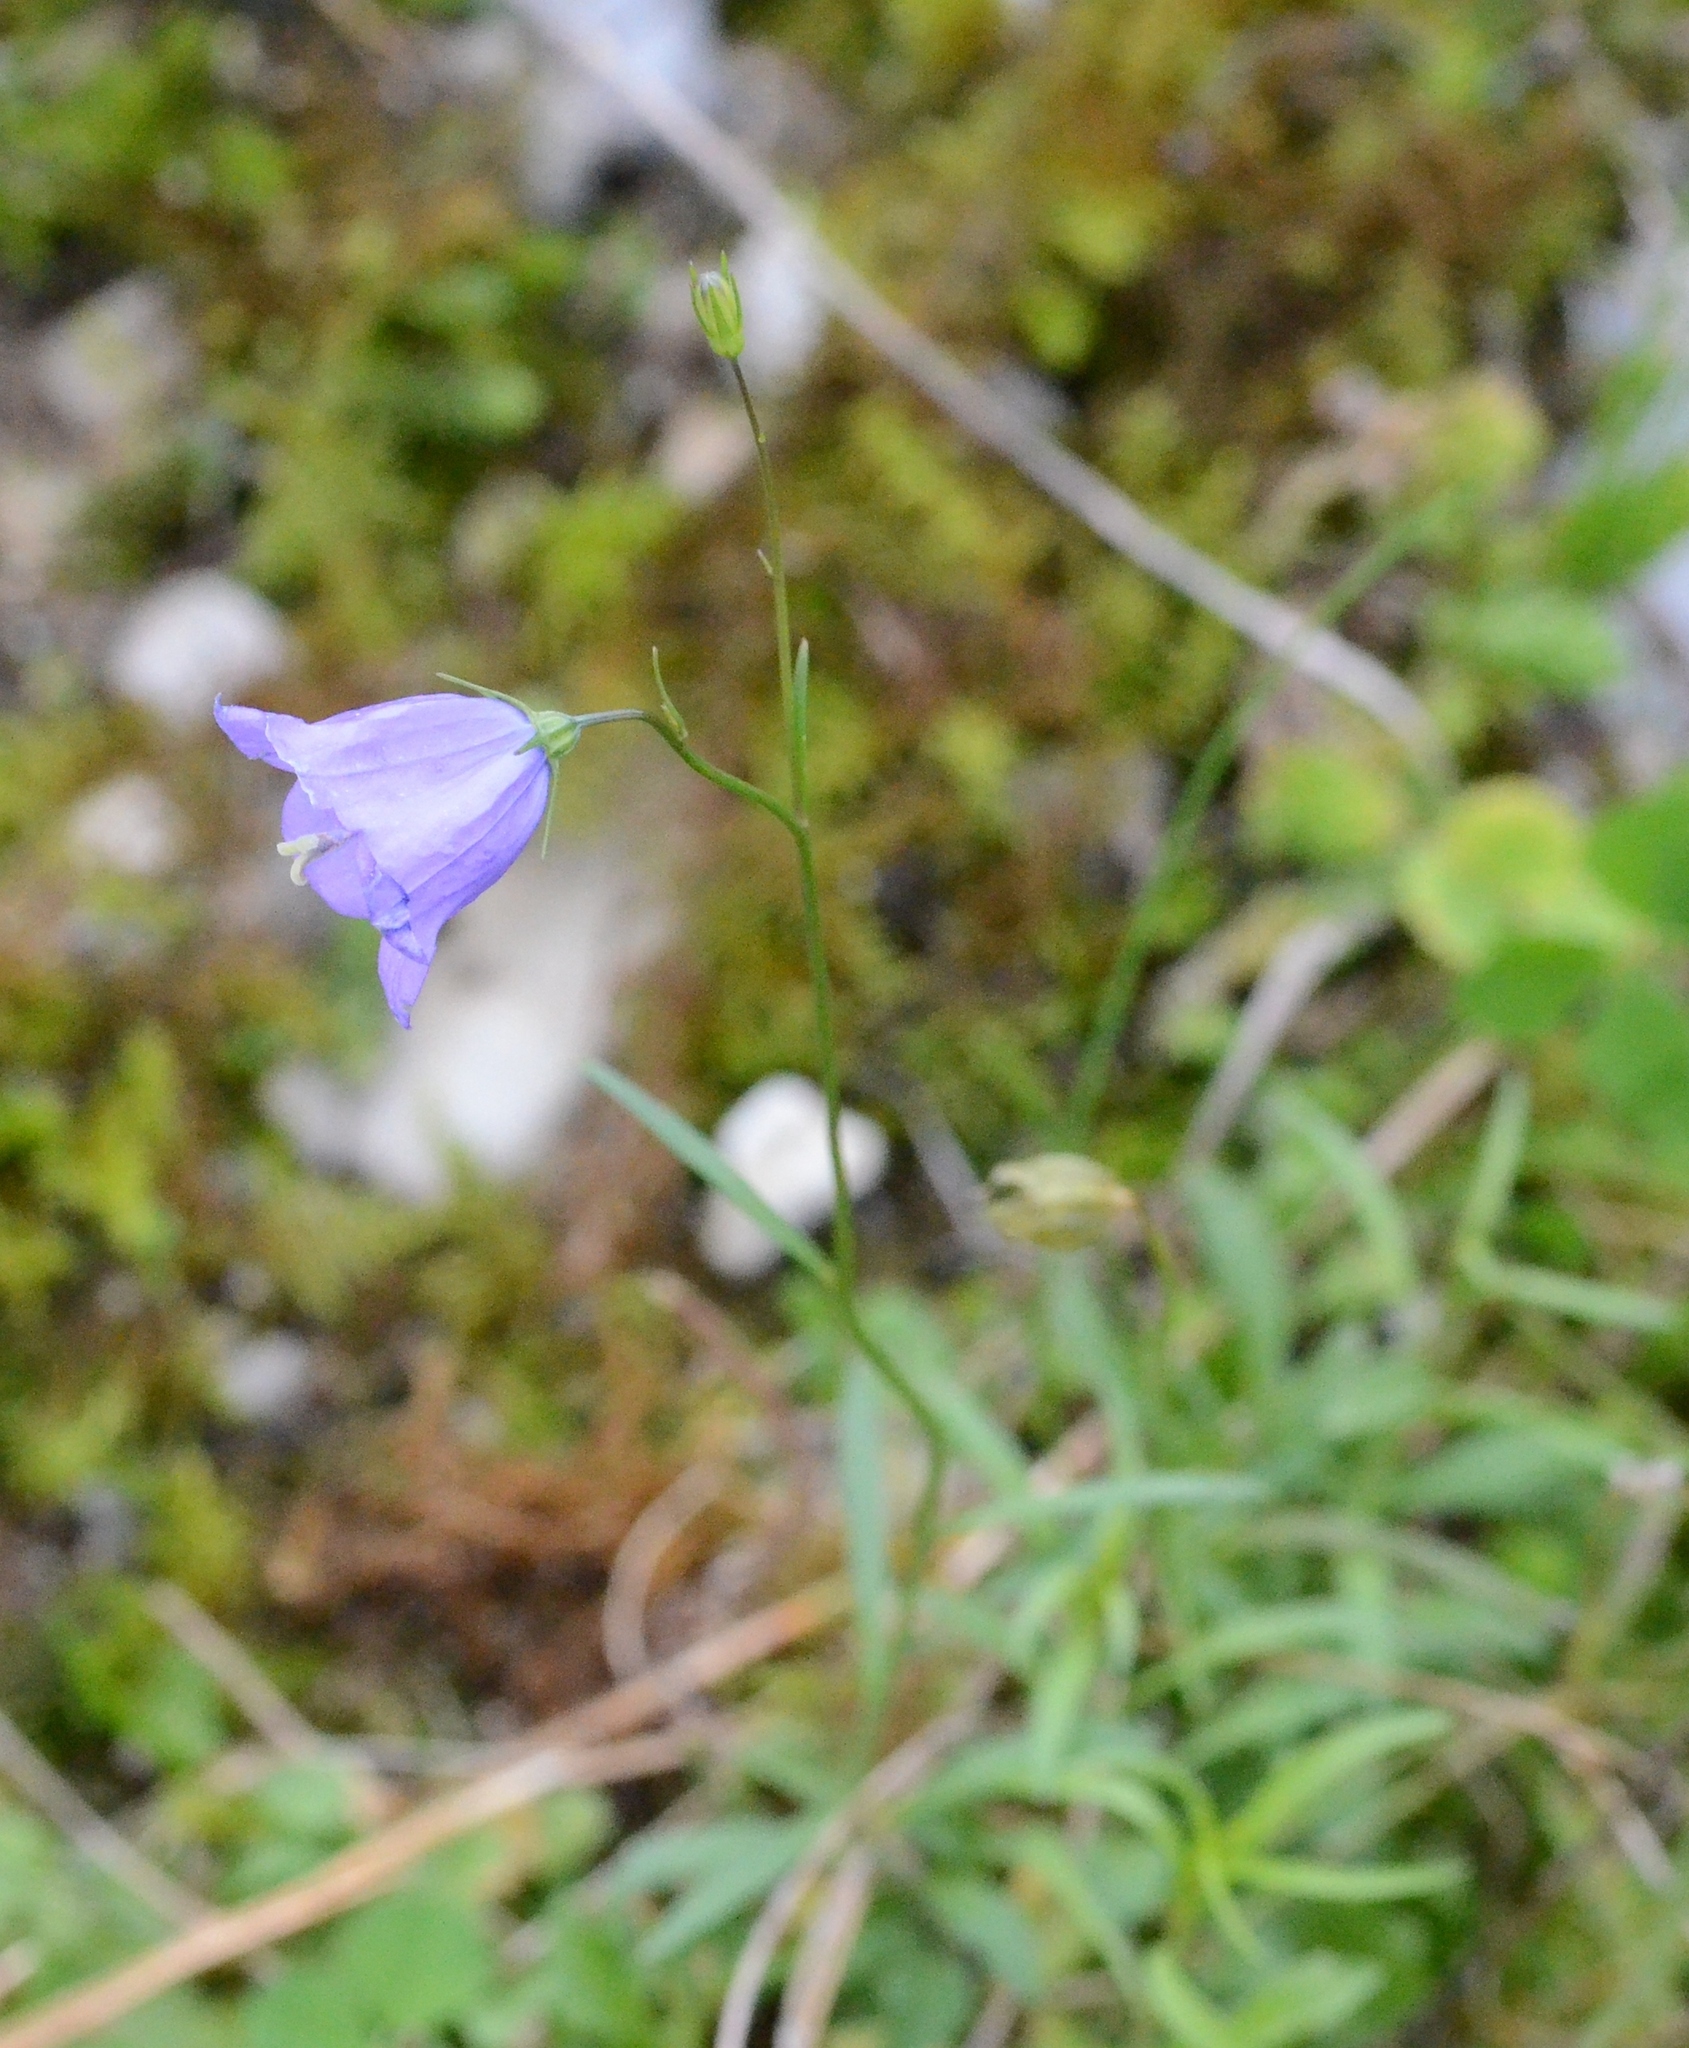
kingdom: Plantae
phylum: Tracheophyta
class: Magnoliopsida
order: Asterales
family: Campanulaceae
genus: Campanula
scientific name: Campanula rotundifolia
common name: Harebell
